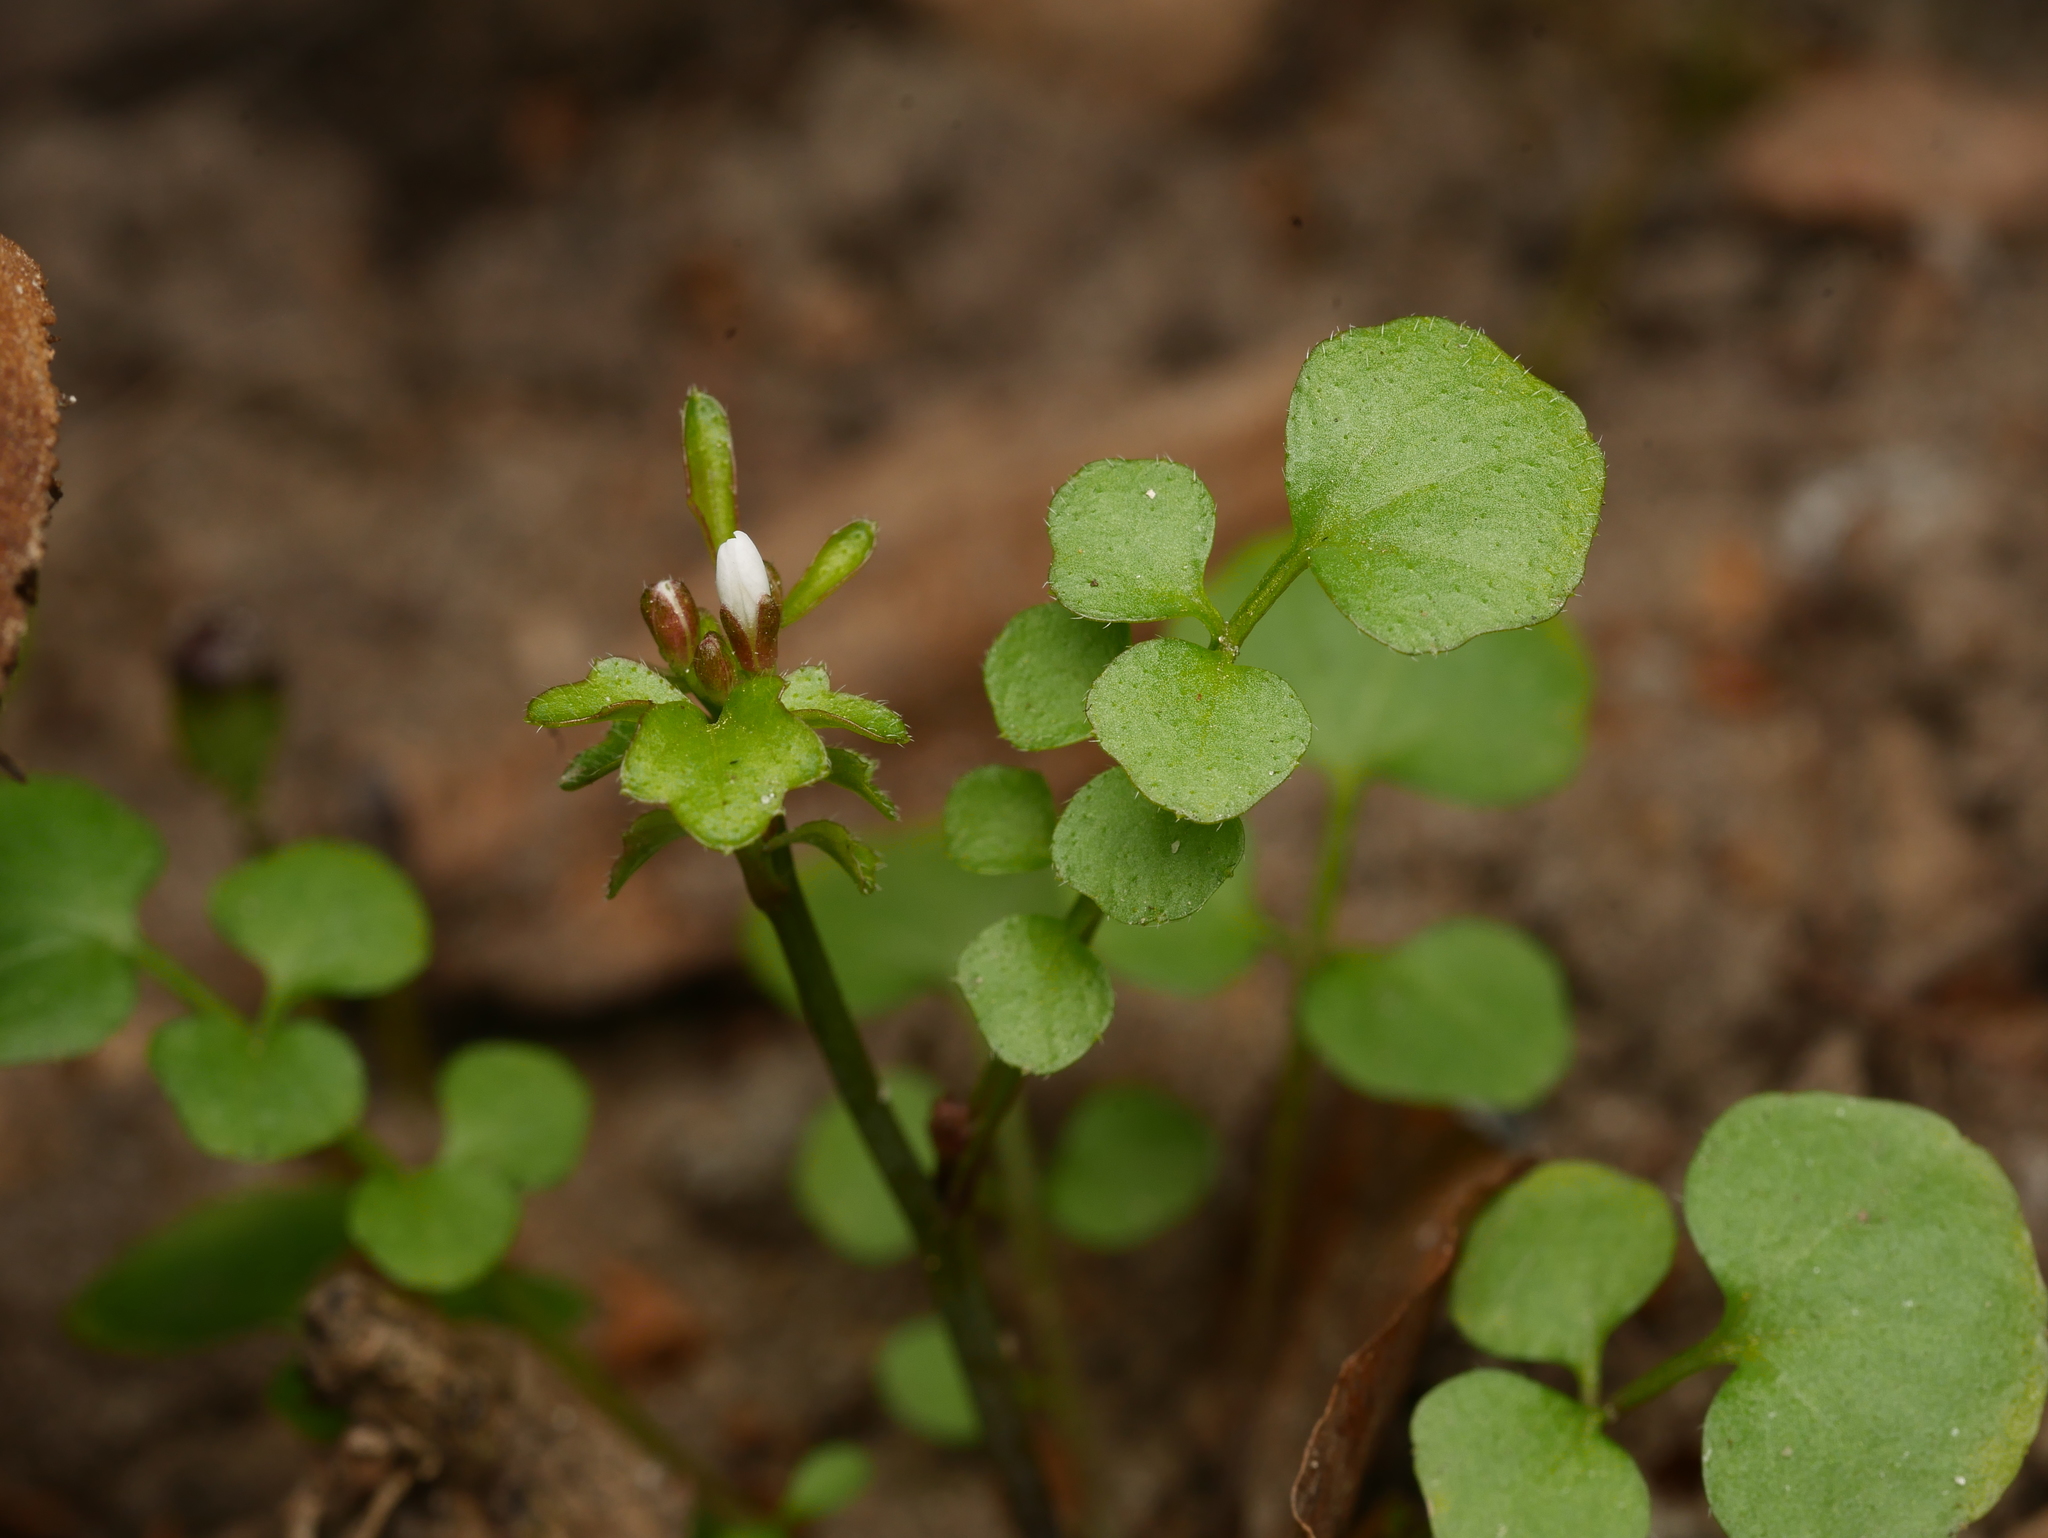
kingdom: Plantae
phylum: Tracheophyta
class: Magnoliopsida
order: Brassicales
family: Brassicaceae
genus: Cardamine
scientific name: Cardamine hirsuta
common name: Hairy bittercress
